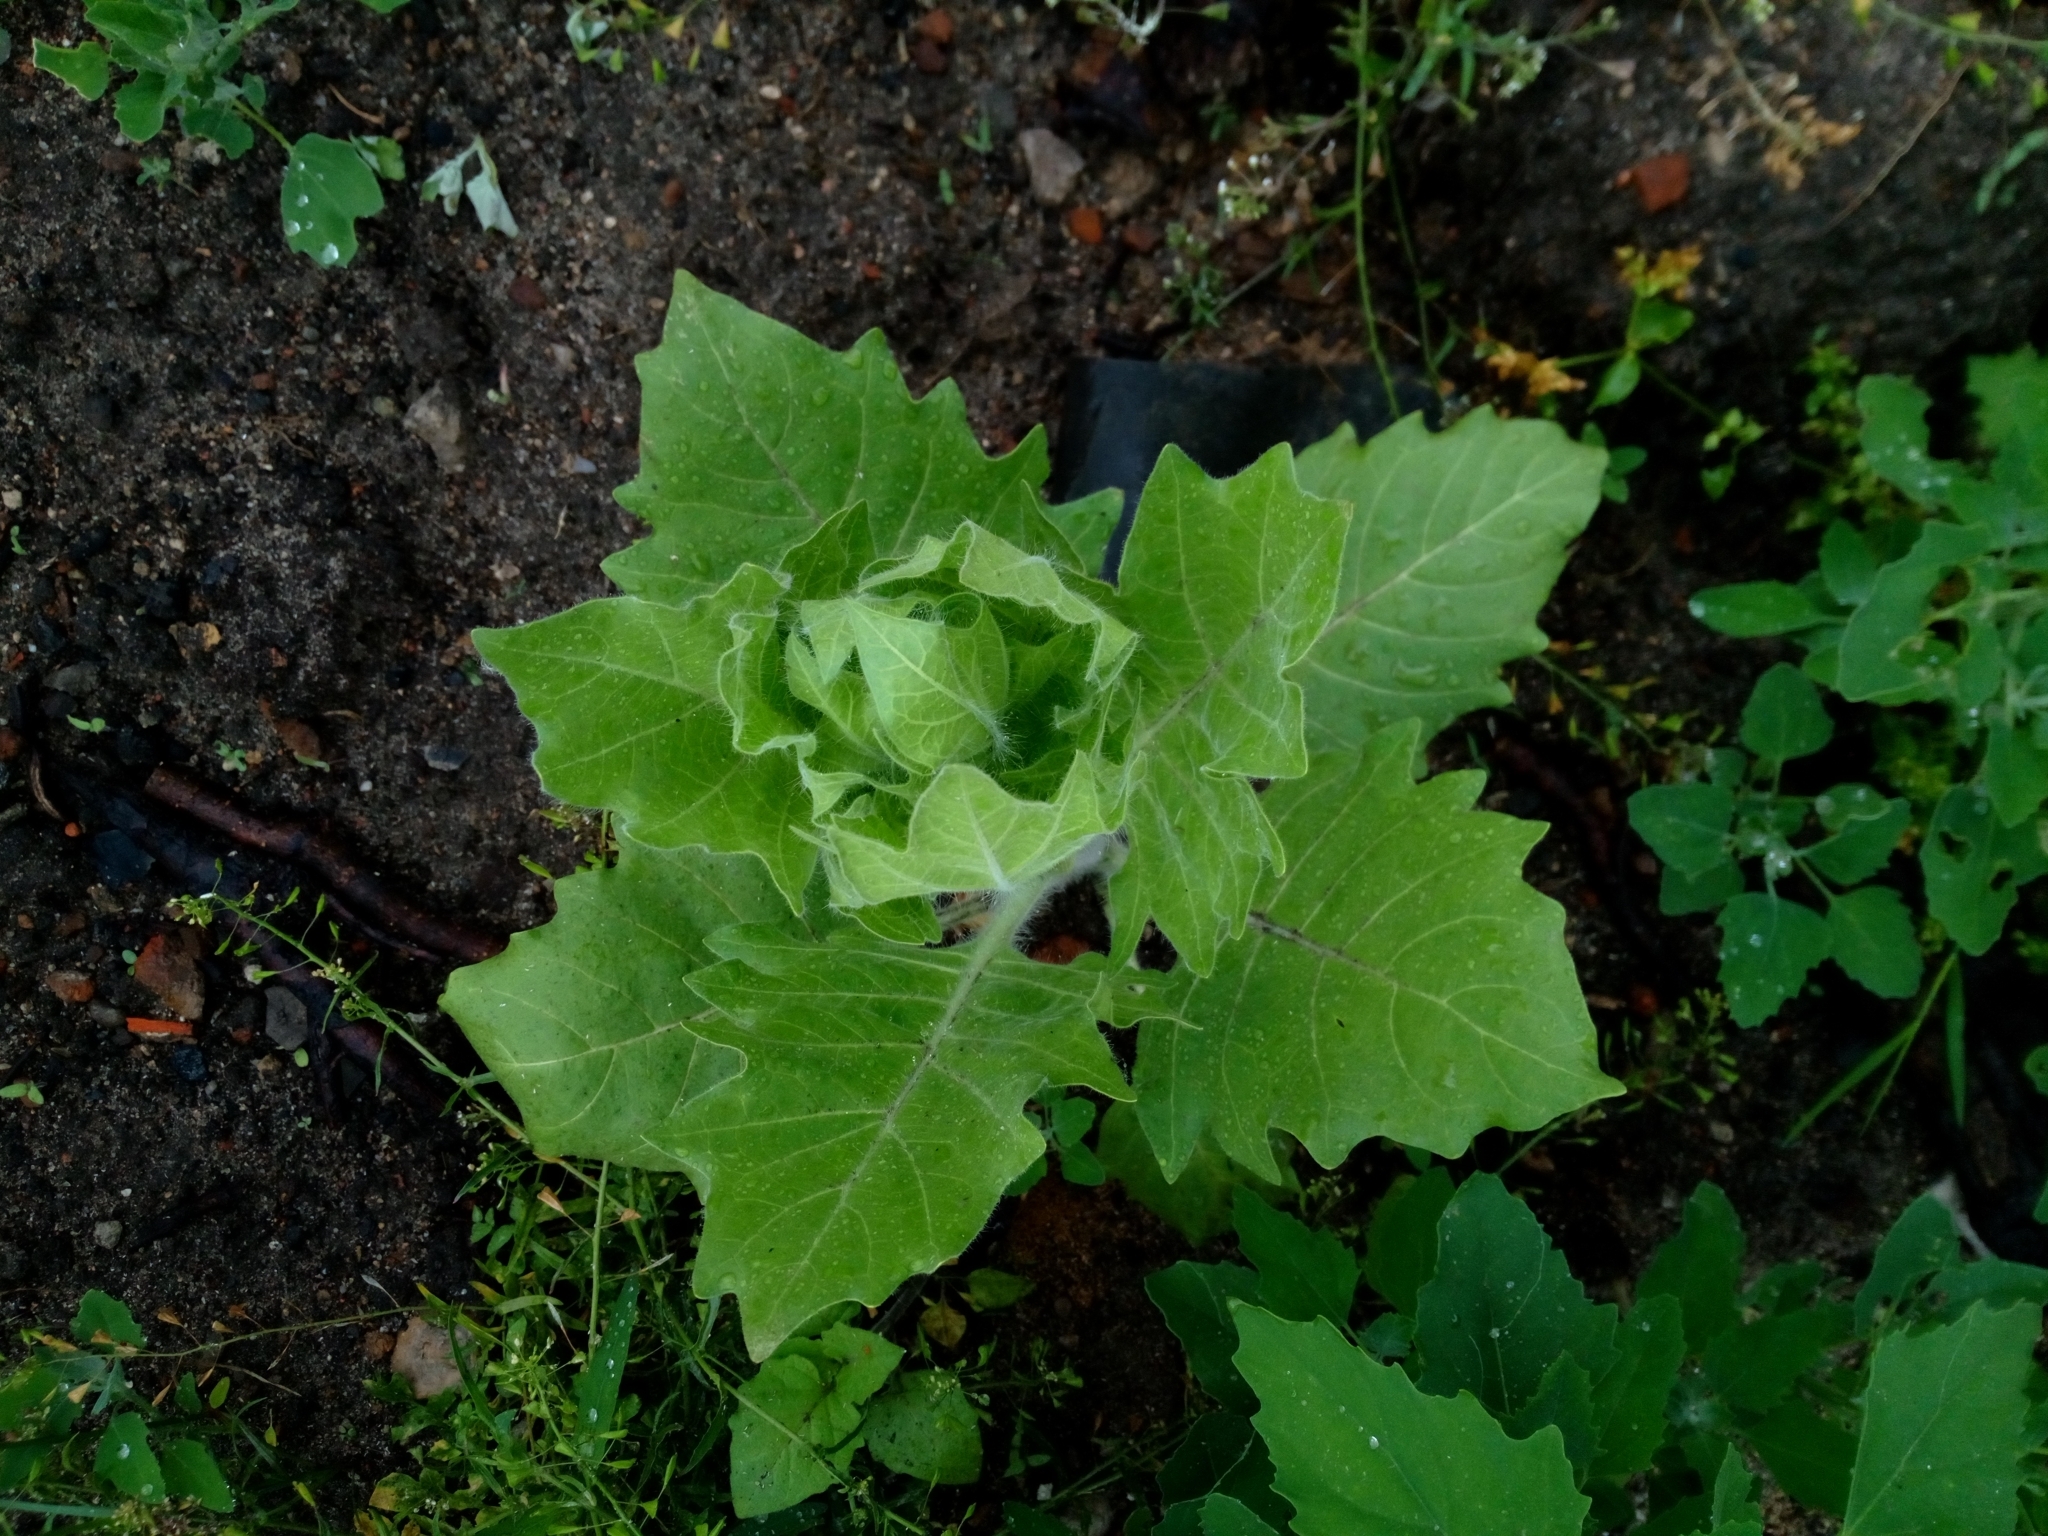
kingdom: Plantae
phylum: Tracheophyta
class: Magnoliopsida
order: Solanales
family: Solanaceae
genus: Hyoscyamus
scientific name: Hyoscyamus niger
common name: Henbane
